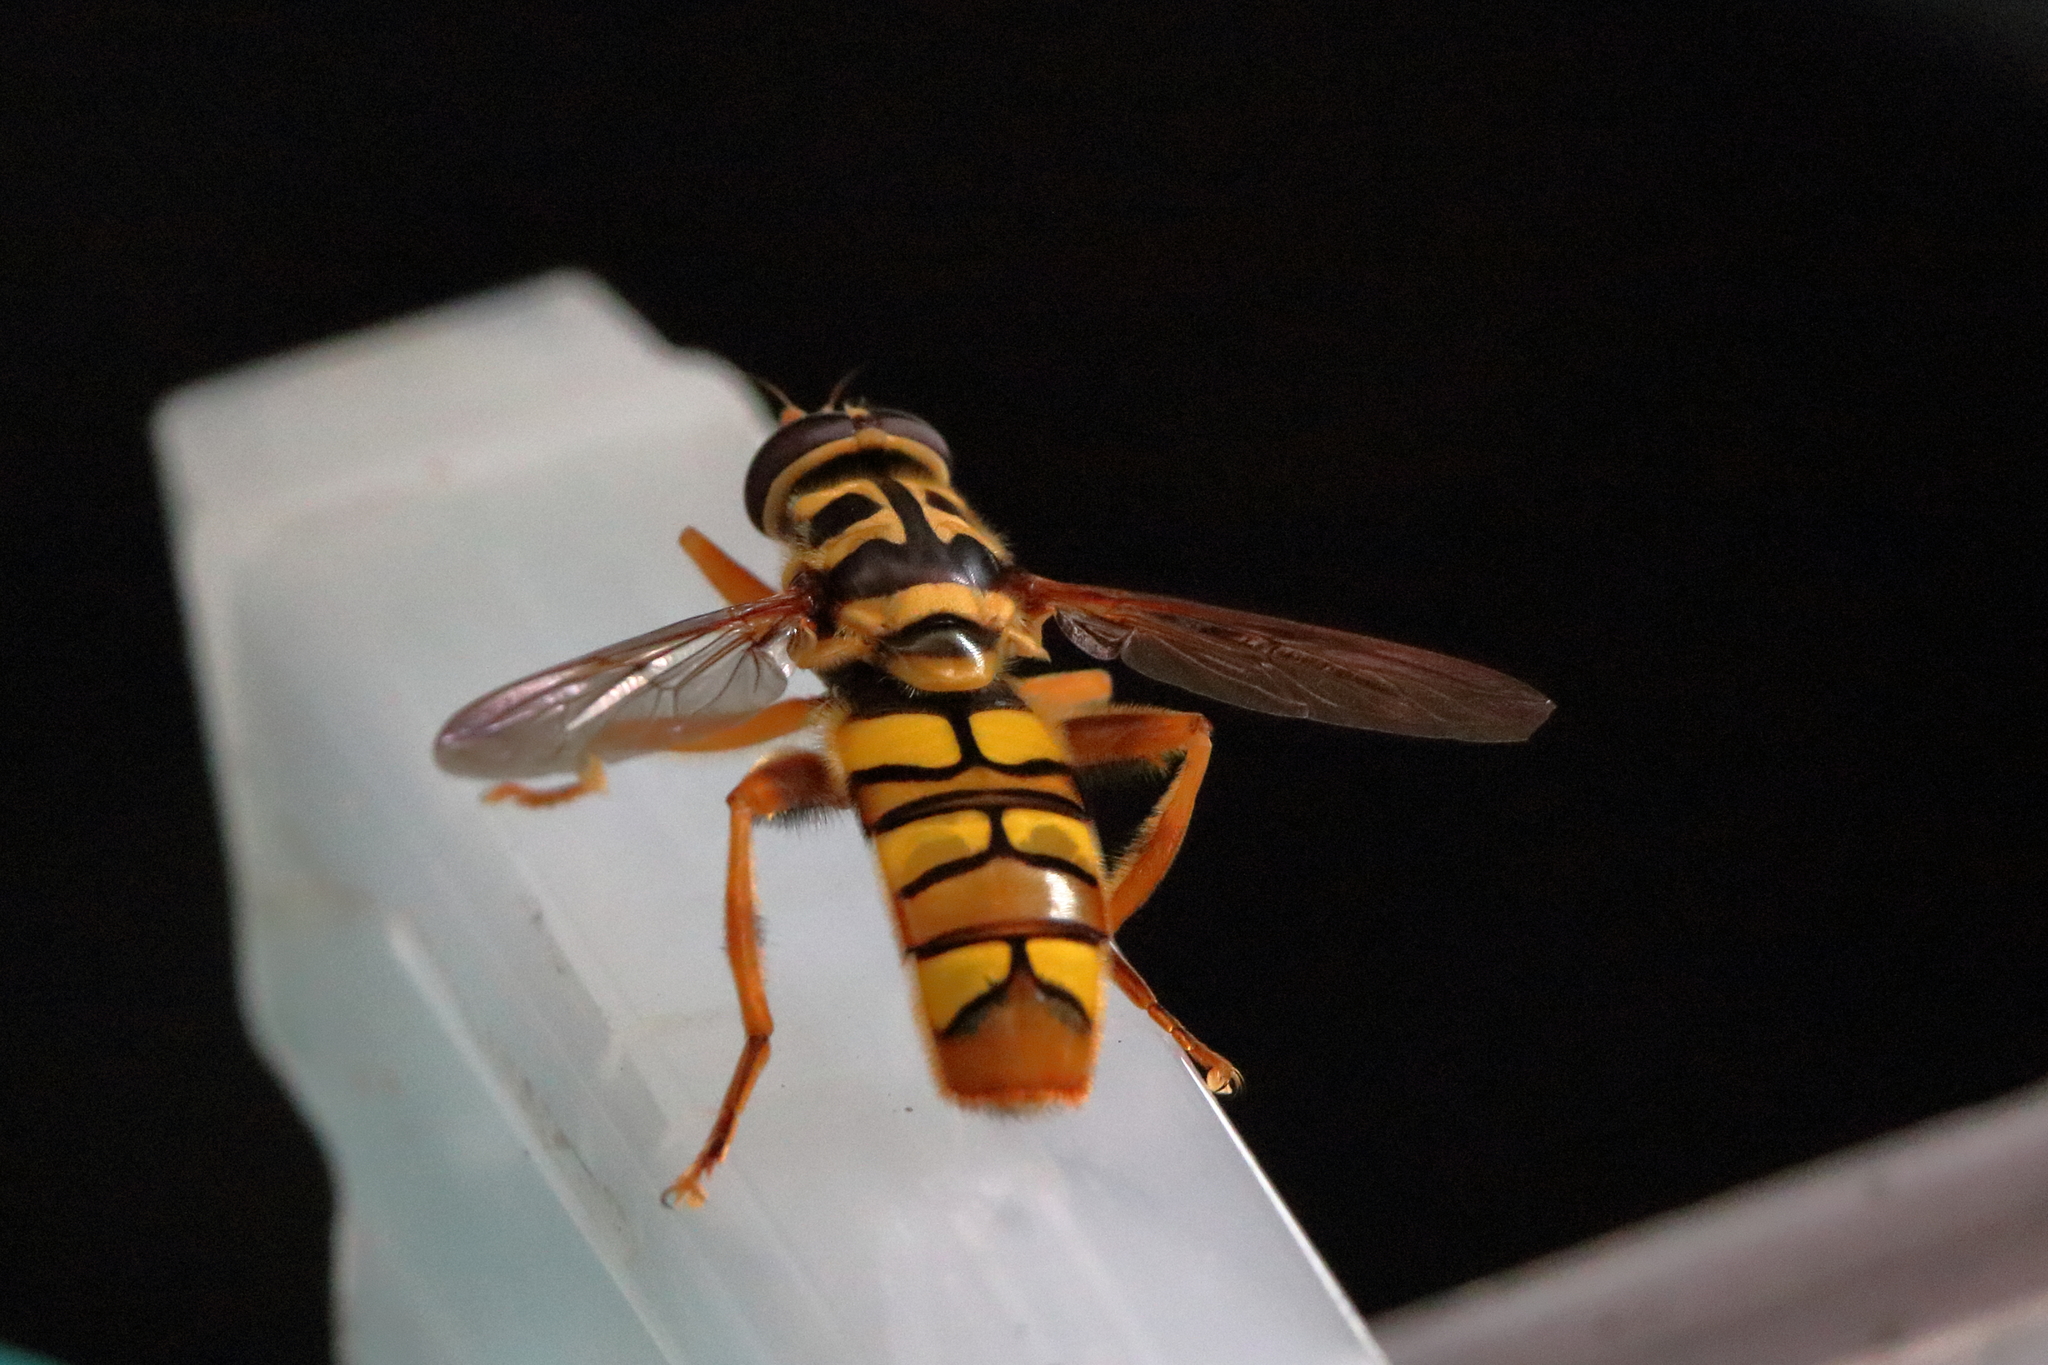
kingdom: Animalia
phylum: Arthropoda
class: Insecta
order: Diptera
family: Syrphidae
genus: Milesia
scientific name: Milesia virginiensis
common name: Virginia giant
